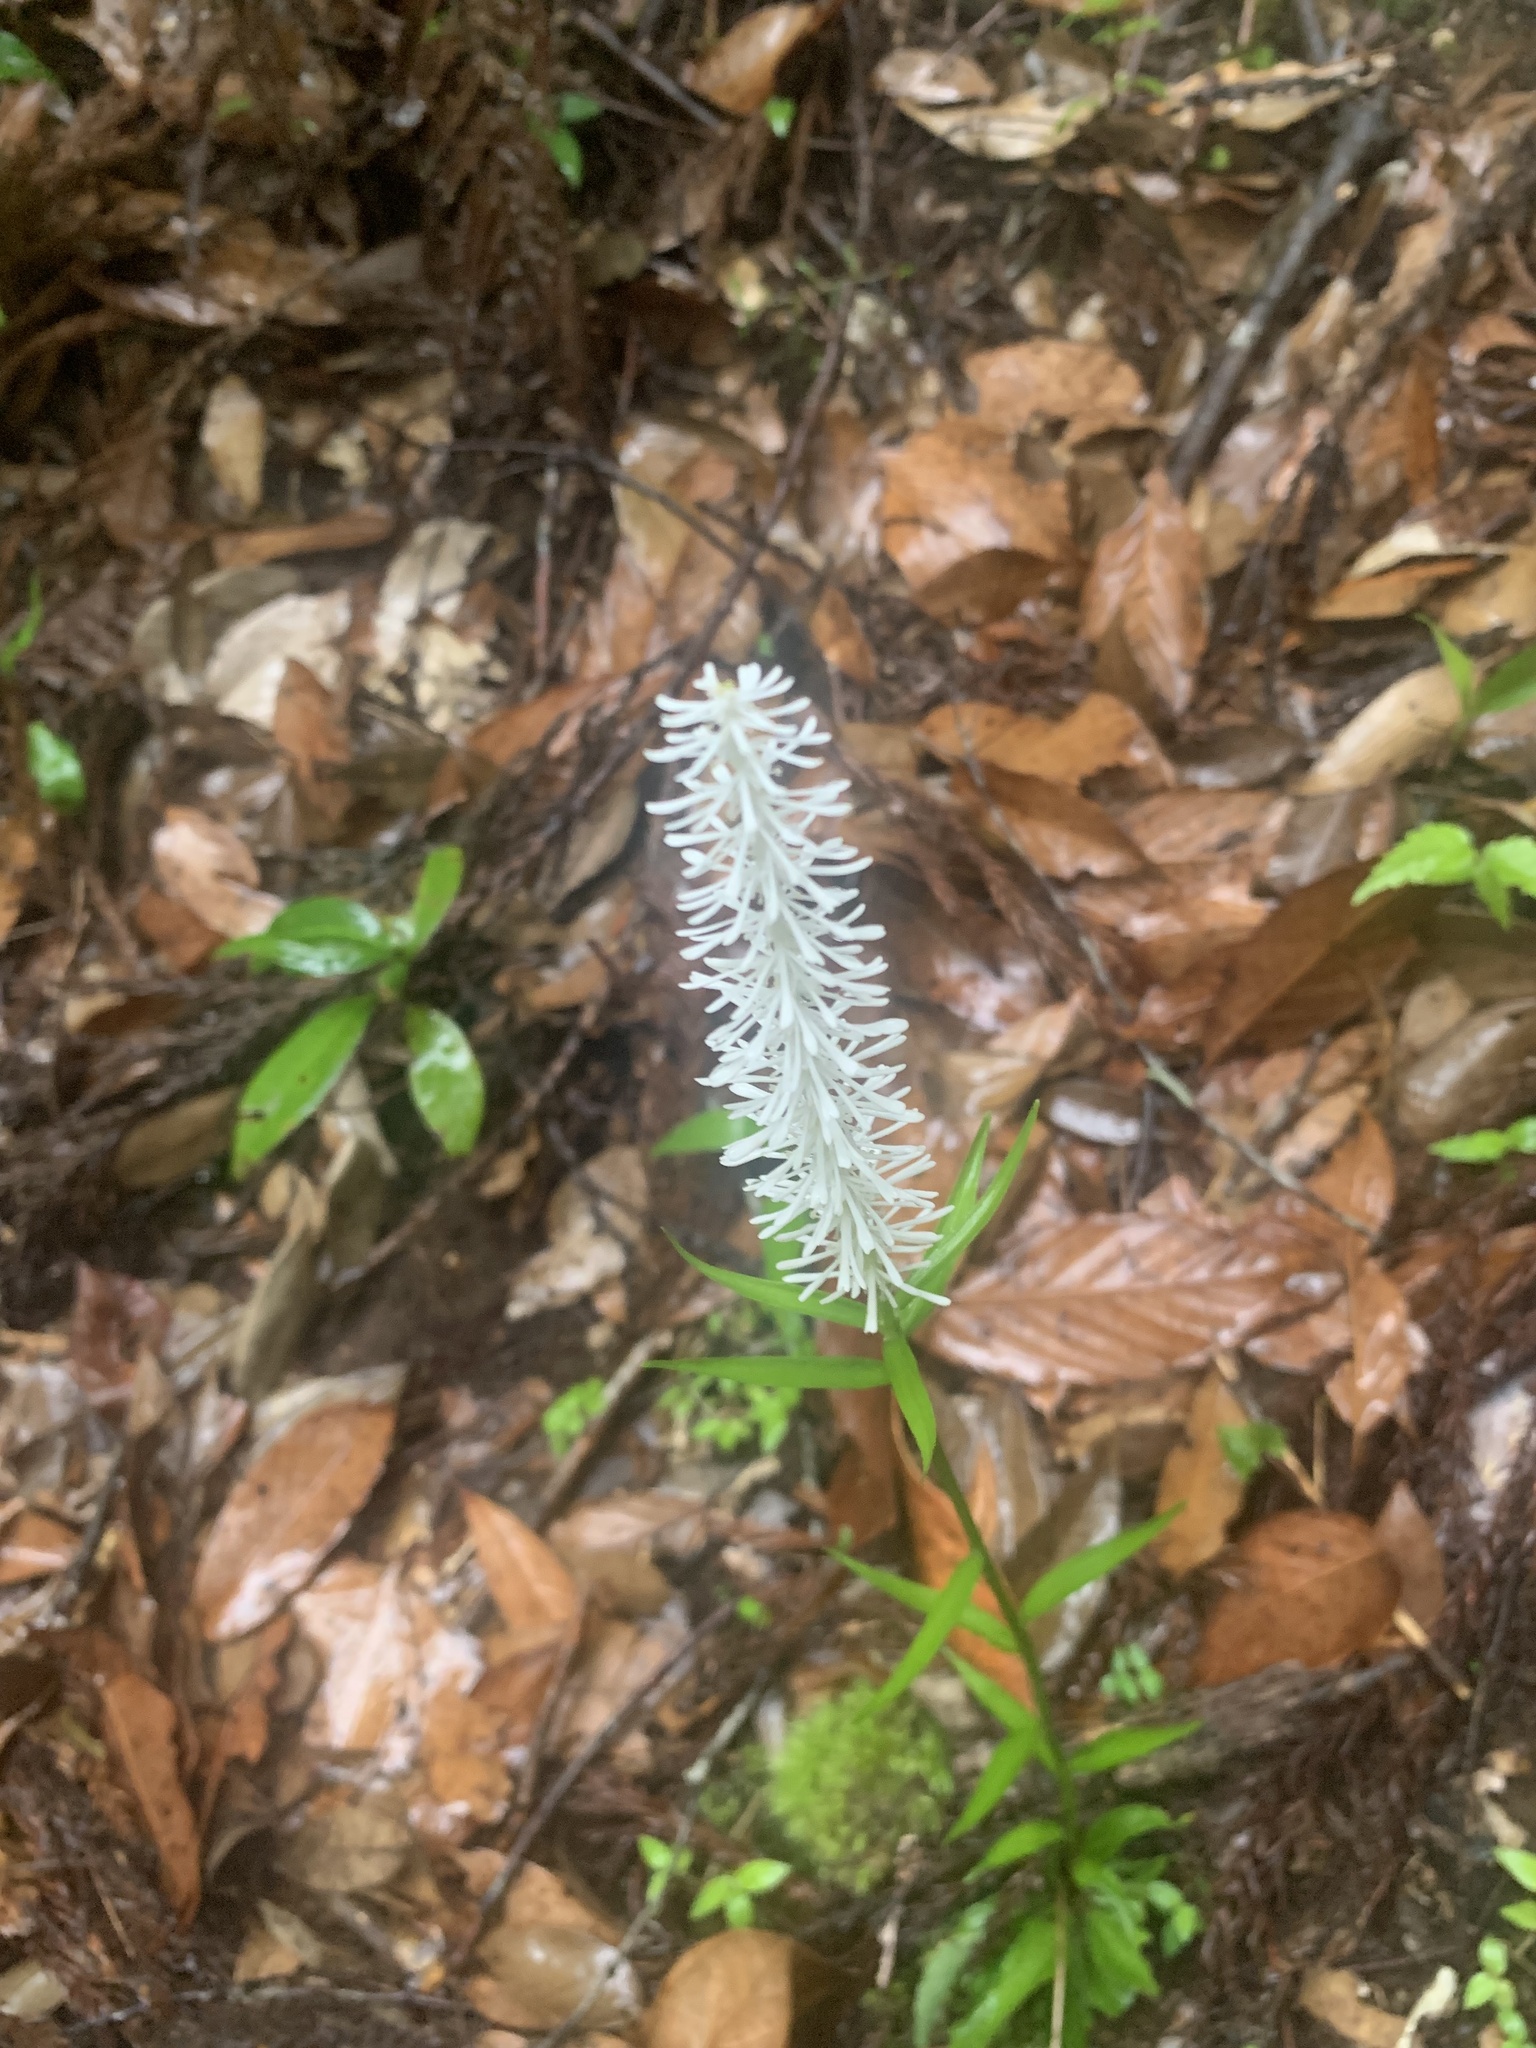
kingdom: Plantae
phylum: Tracheophyta
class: Liliopsida
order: Liliales
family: Melanthiaceae
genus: Chamaelirium
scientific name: Chamaelirium japonicum
